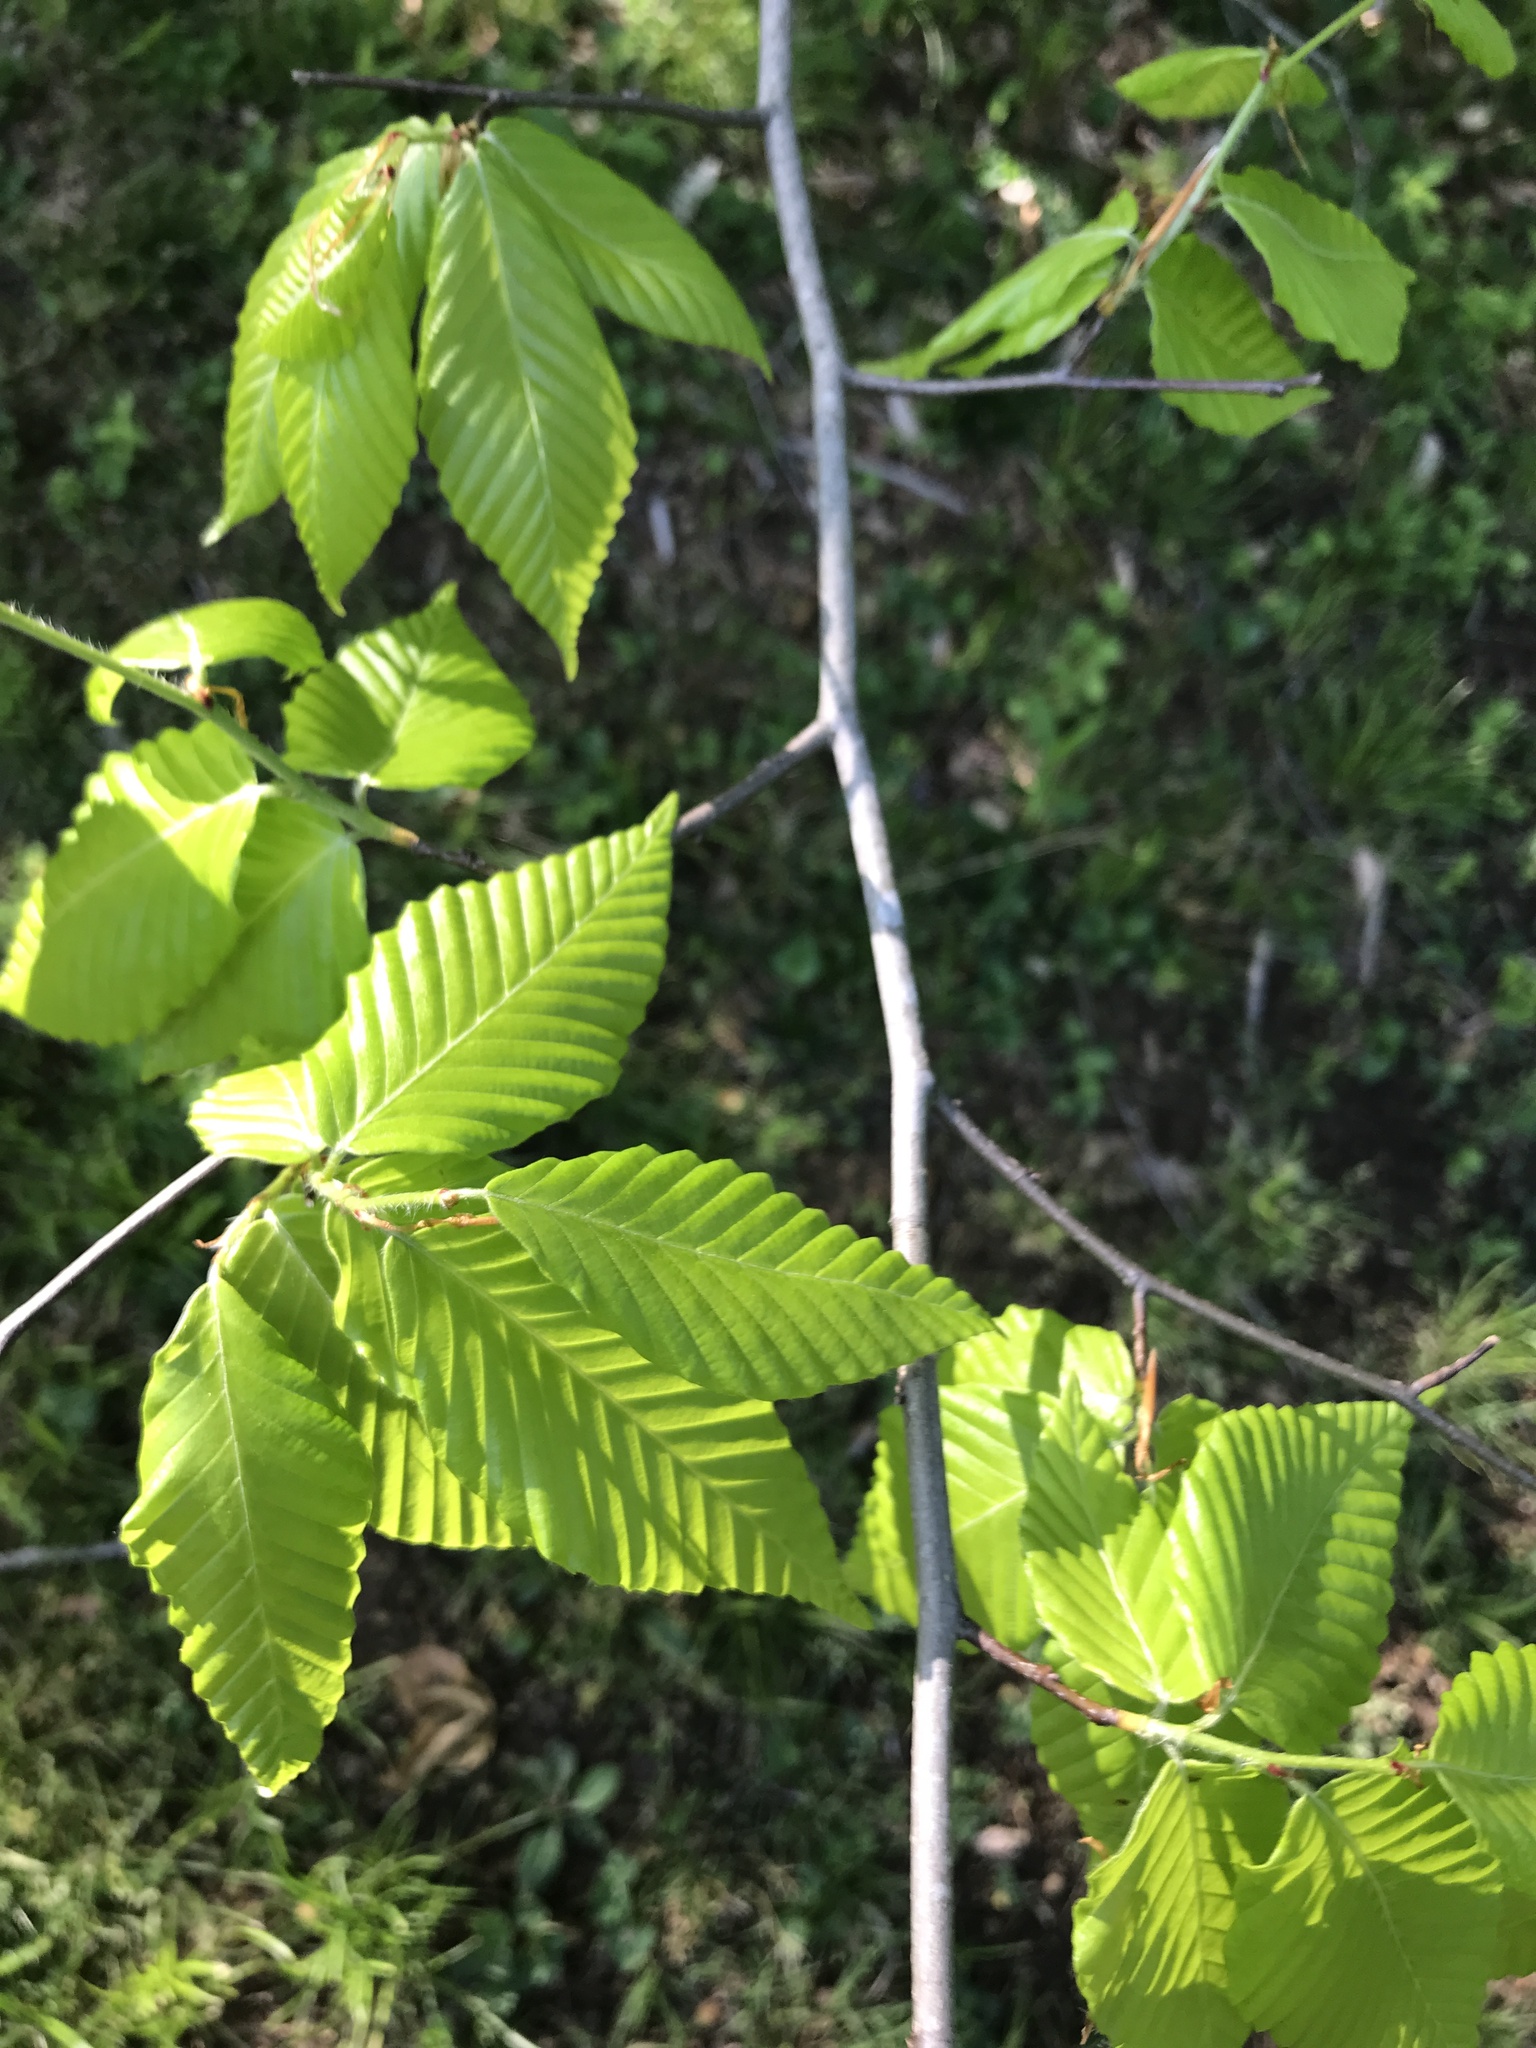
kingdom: Plantae
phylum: Tracheophyta
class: Magnoliopsida
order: Fagales
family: Fagaceae
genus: Fagus
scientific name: Fagus grandifolia
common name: American beech
